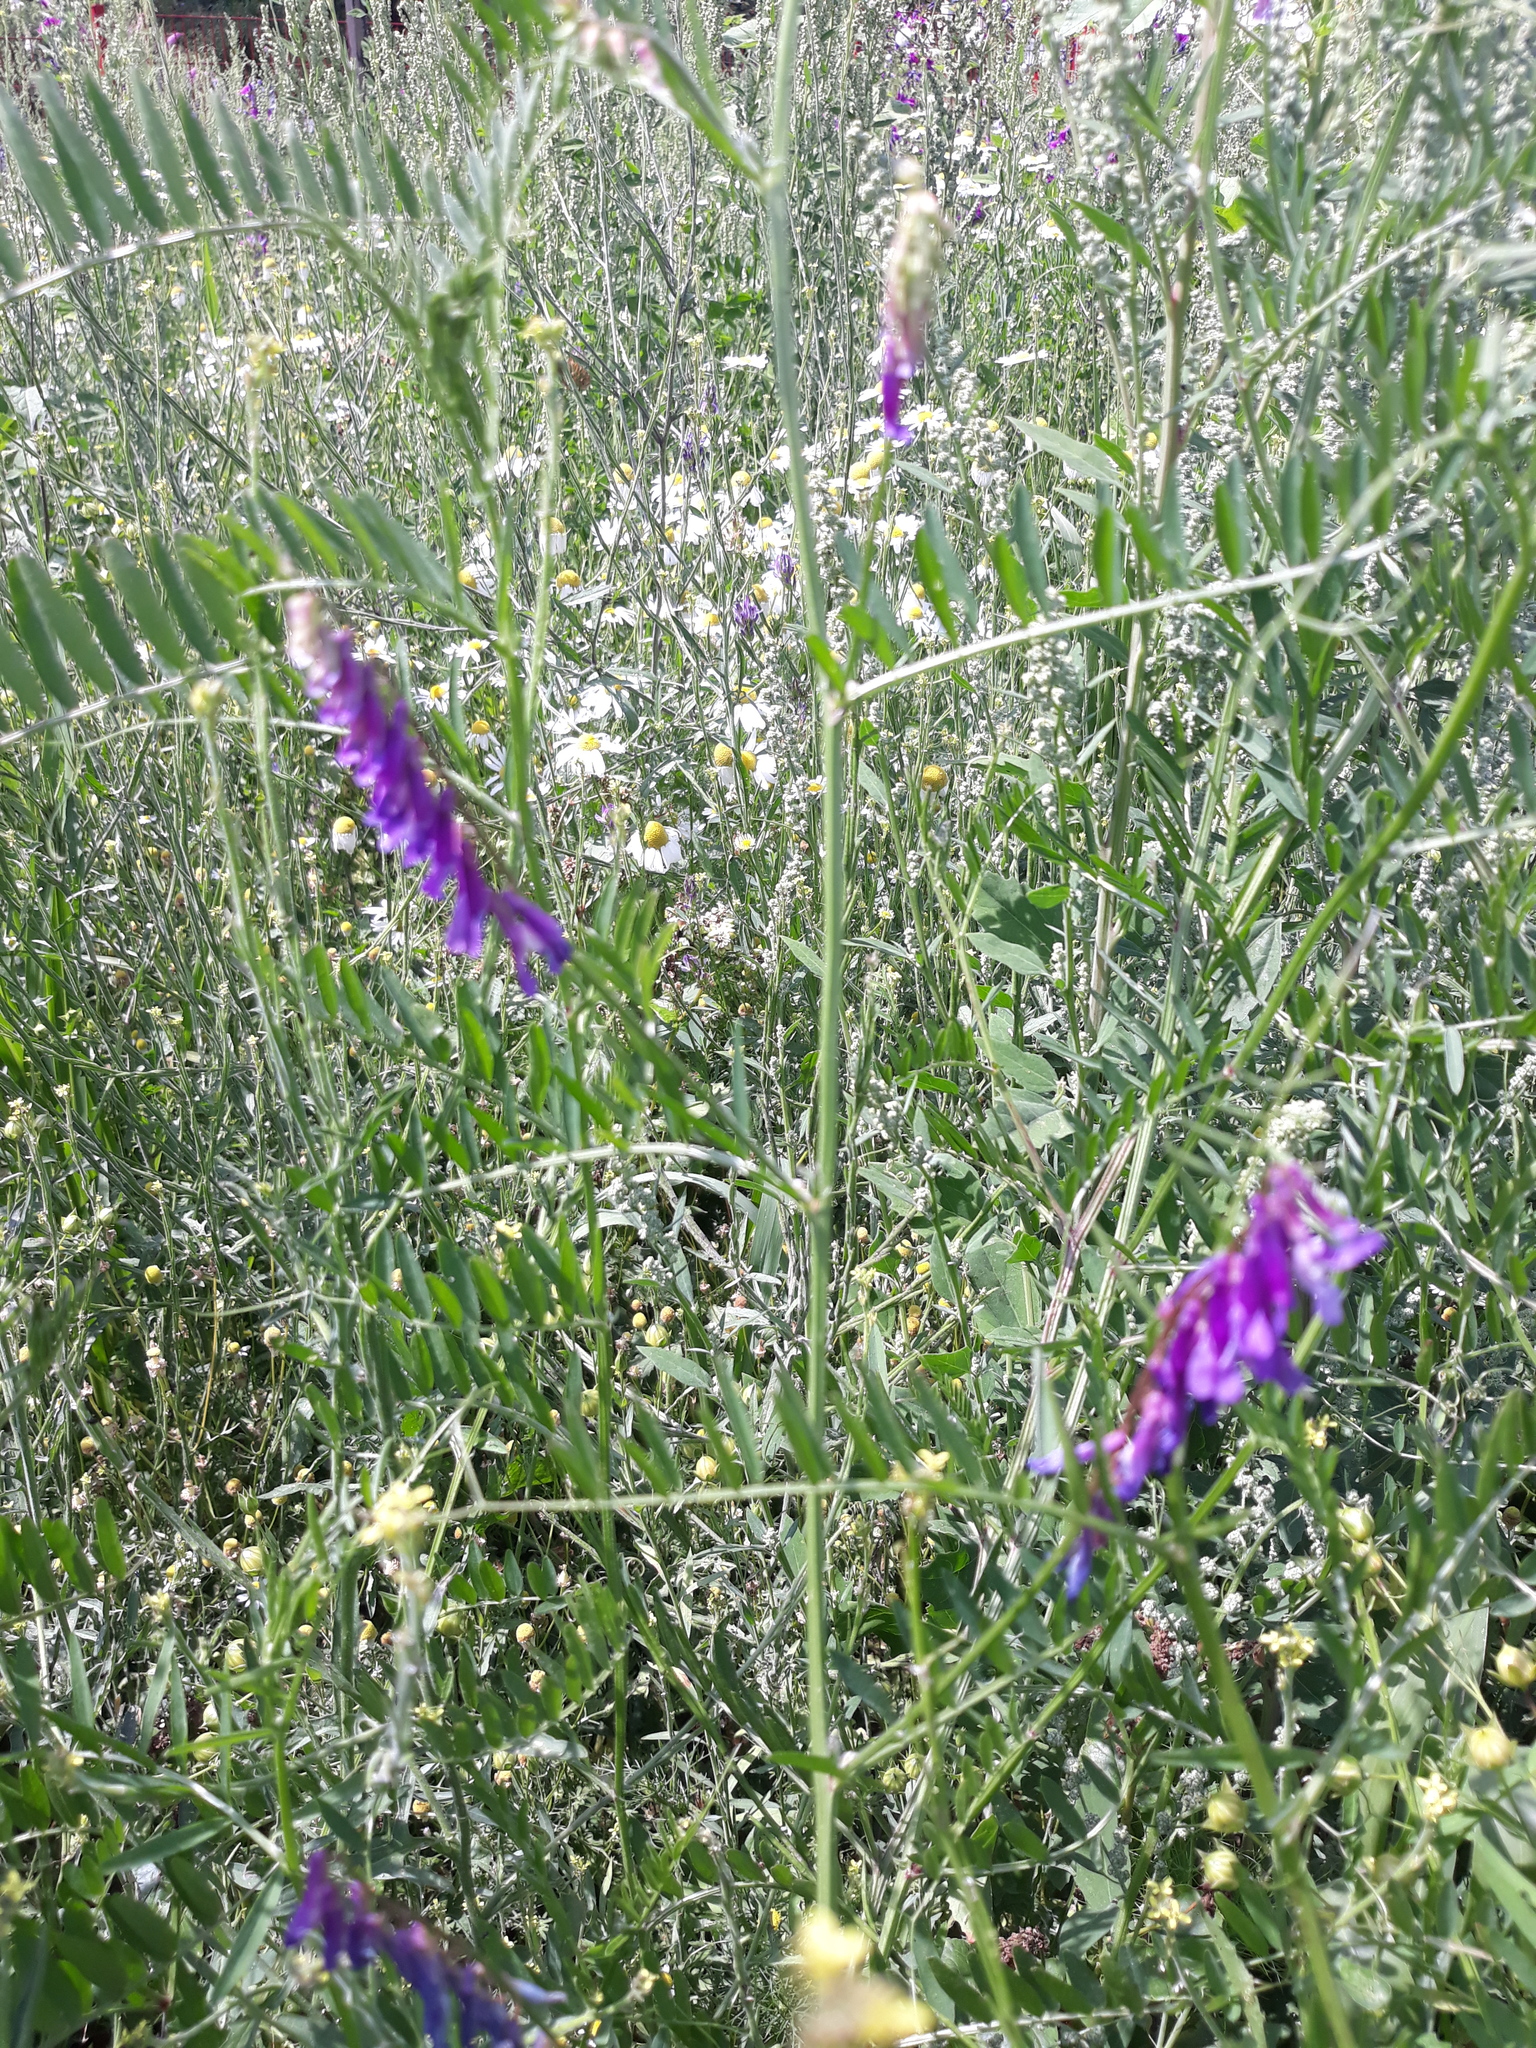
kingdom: Plantae
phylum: Tracheophyta
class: Magnoliopsida
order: Fabales
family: Fabaceae
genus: Vicia
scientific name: Vicia cracca
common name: Bird vetch
